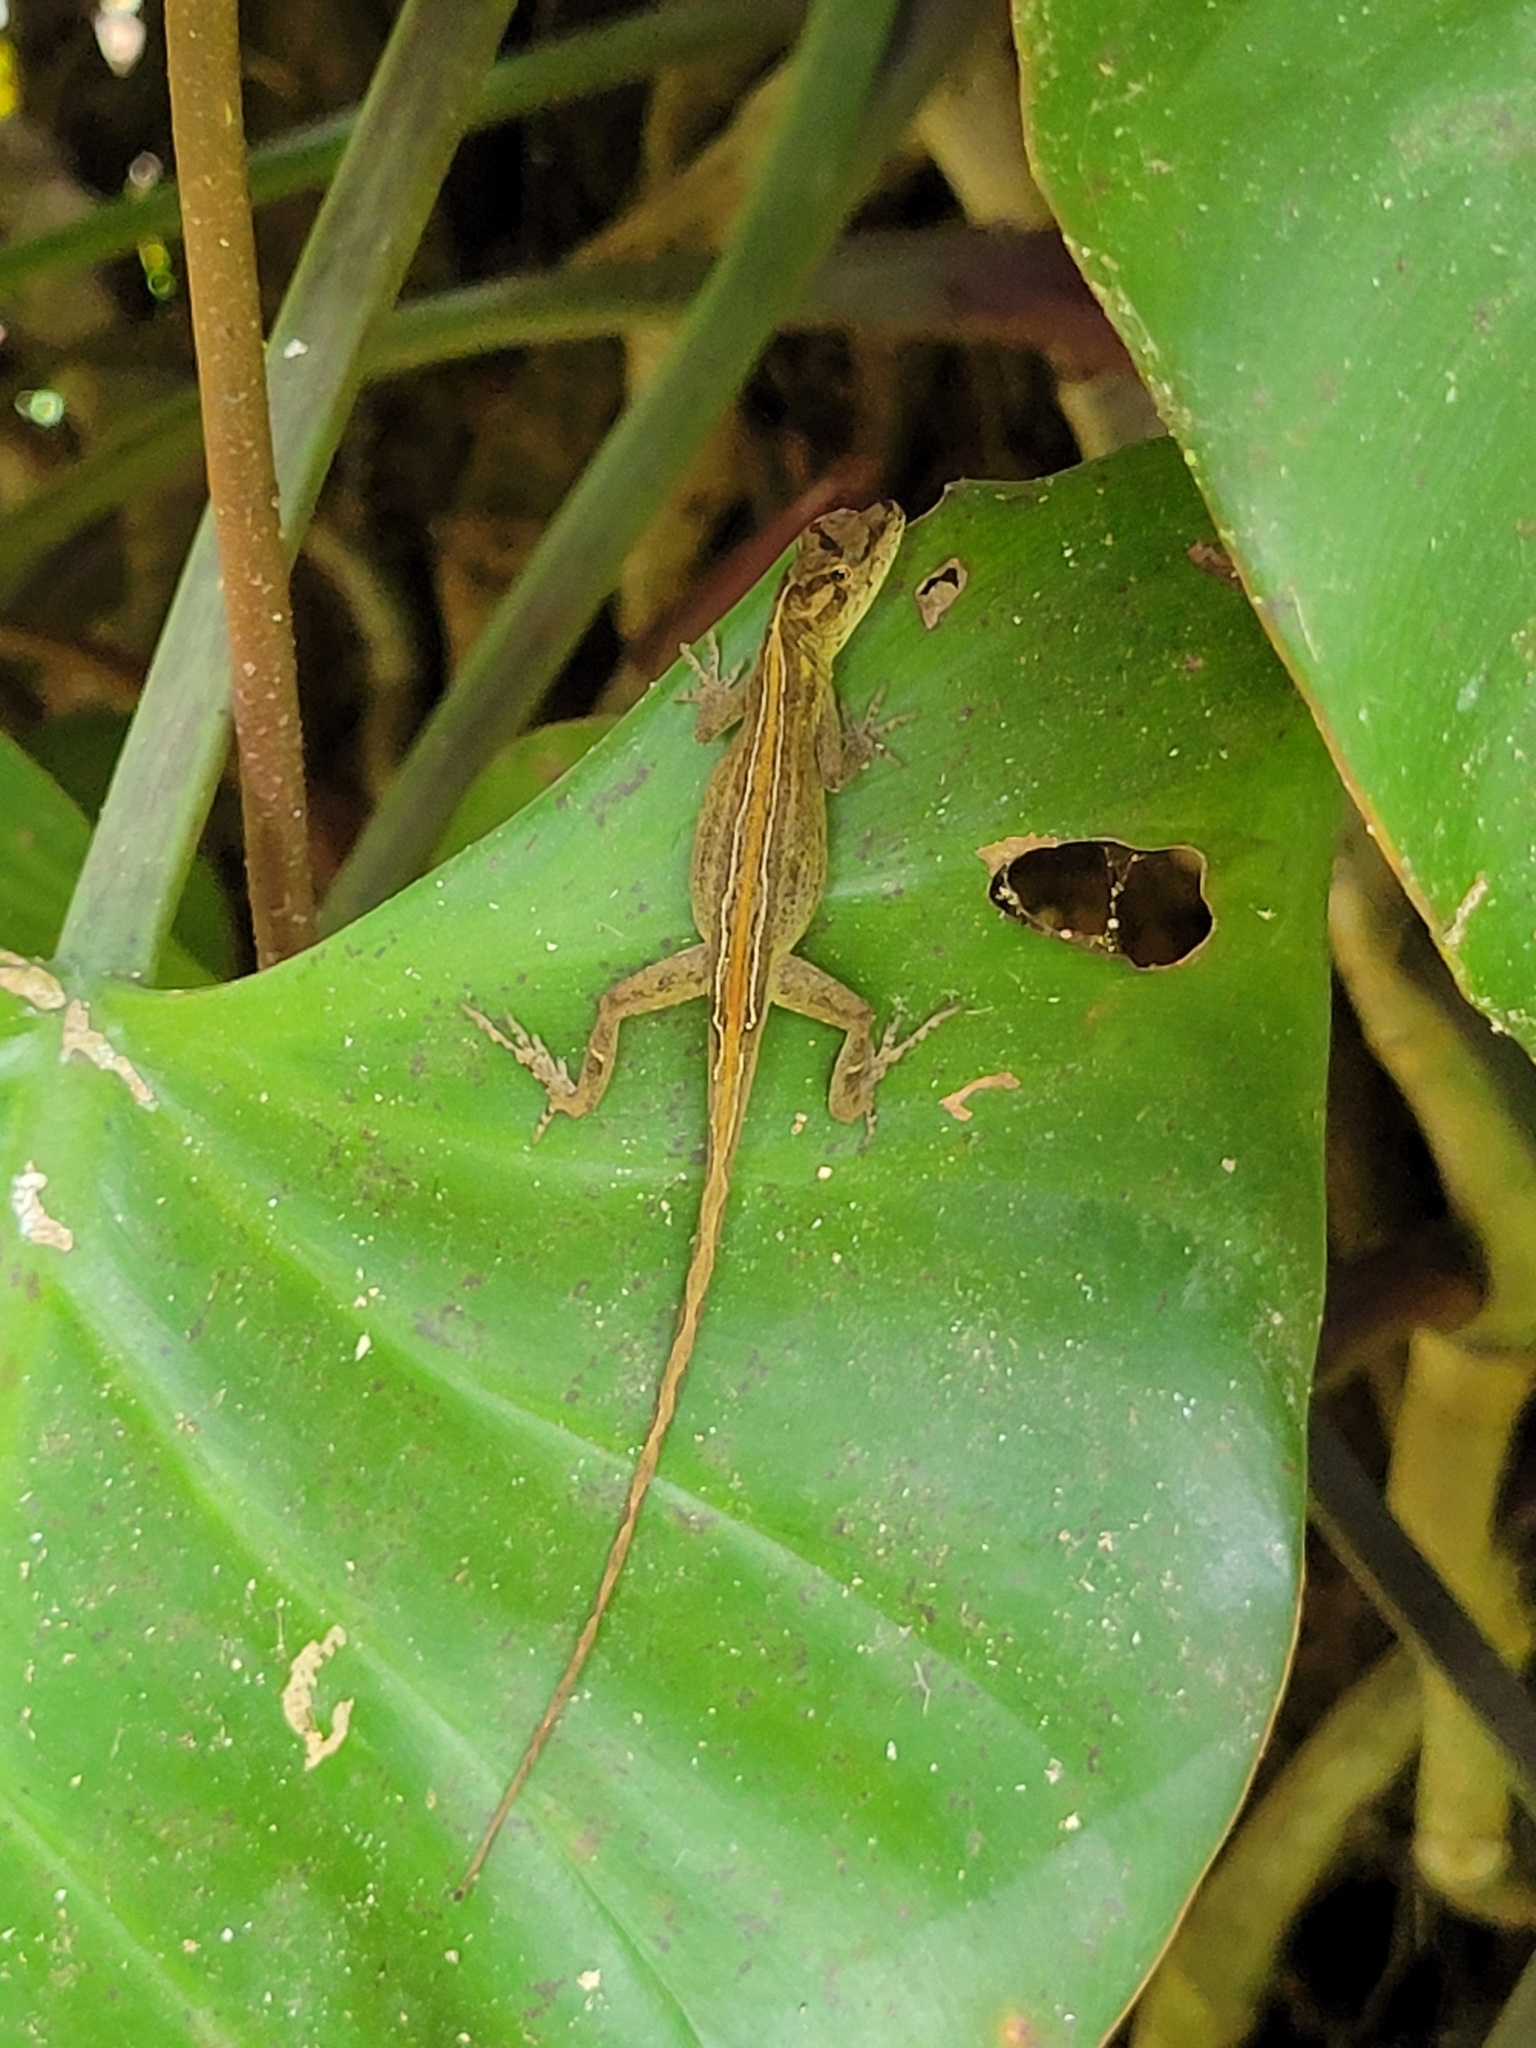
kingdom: Animalia
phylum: Chordata
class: Squamata
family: Dactyloidae
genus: Anolis
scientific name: Anolis lemurinus
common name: Ghost anole
